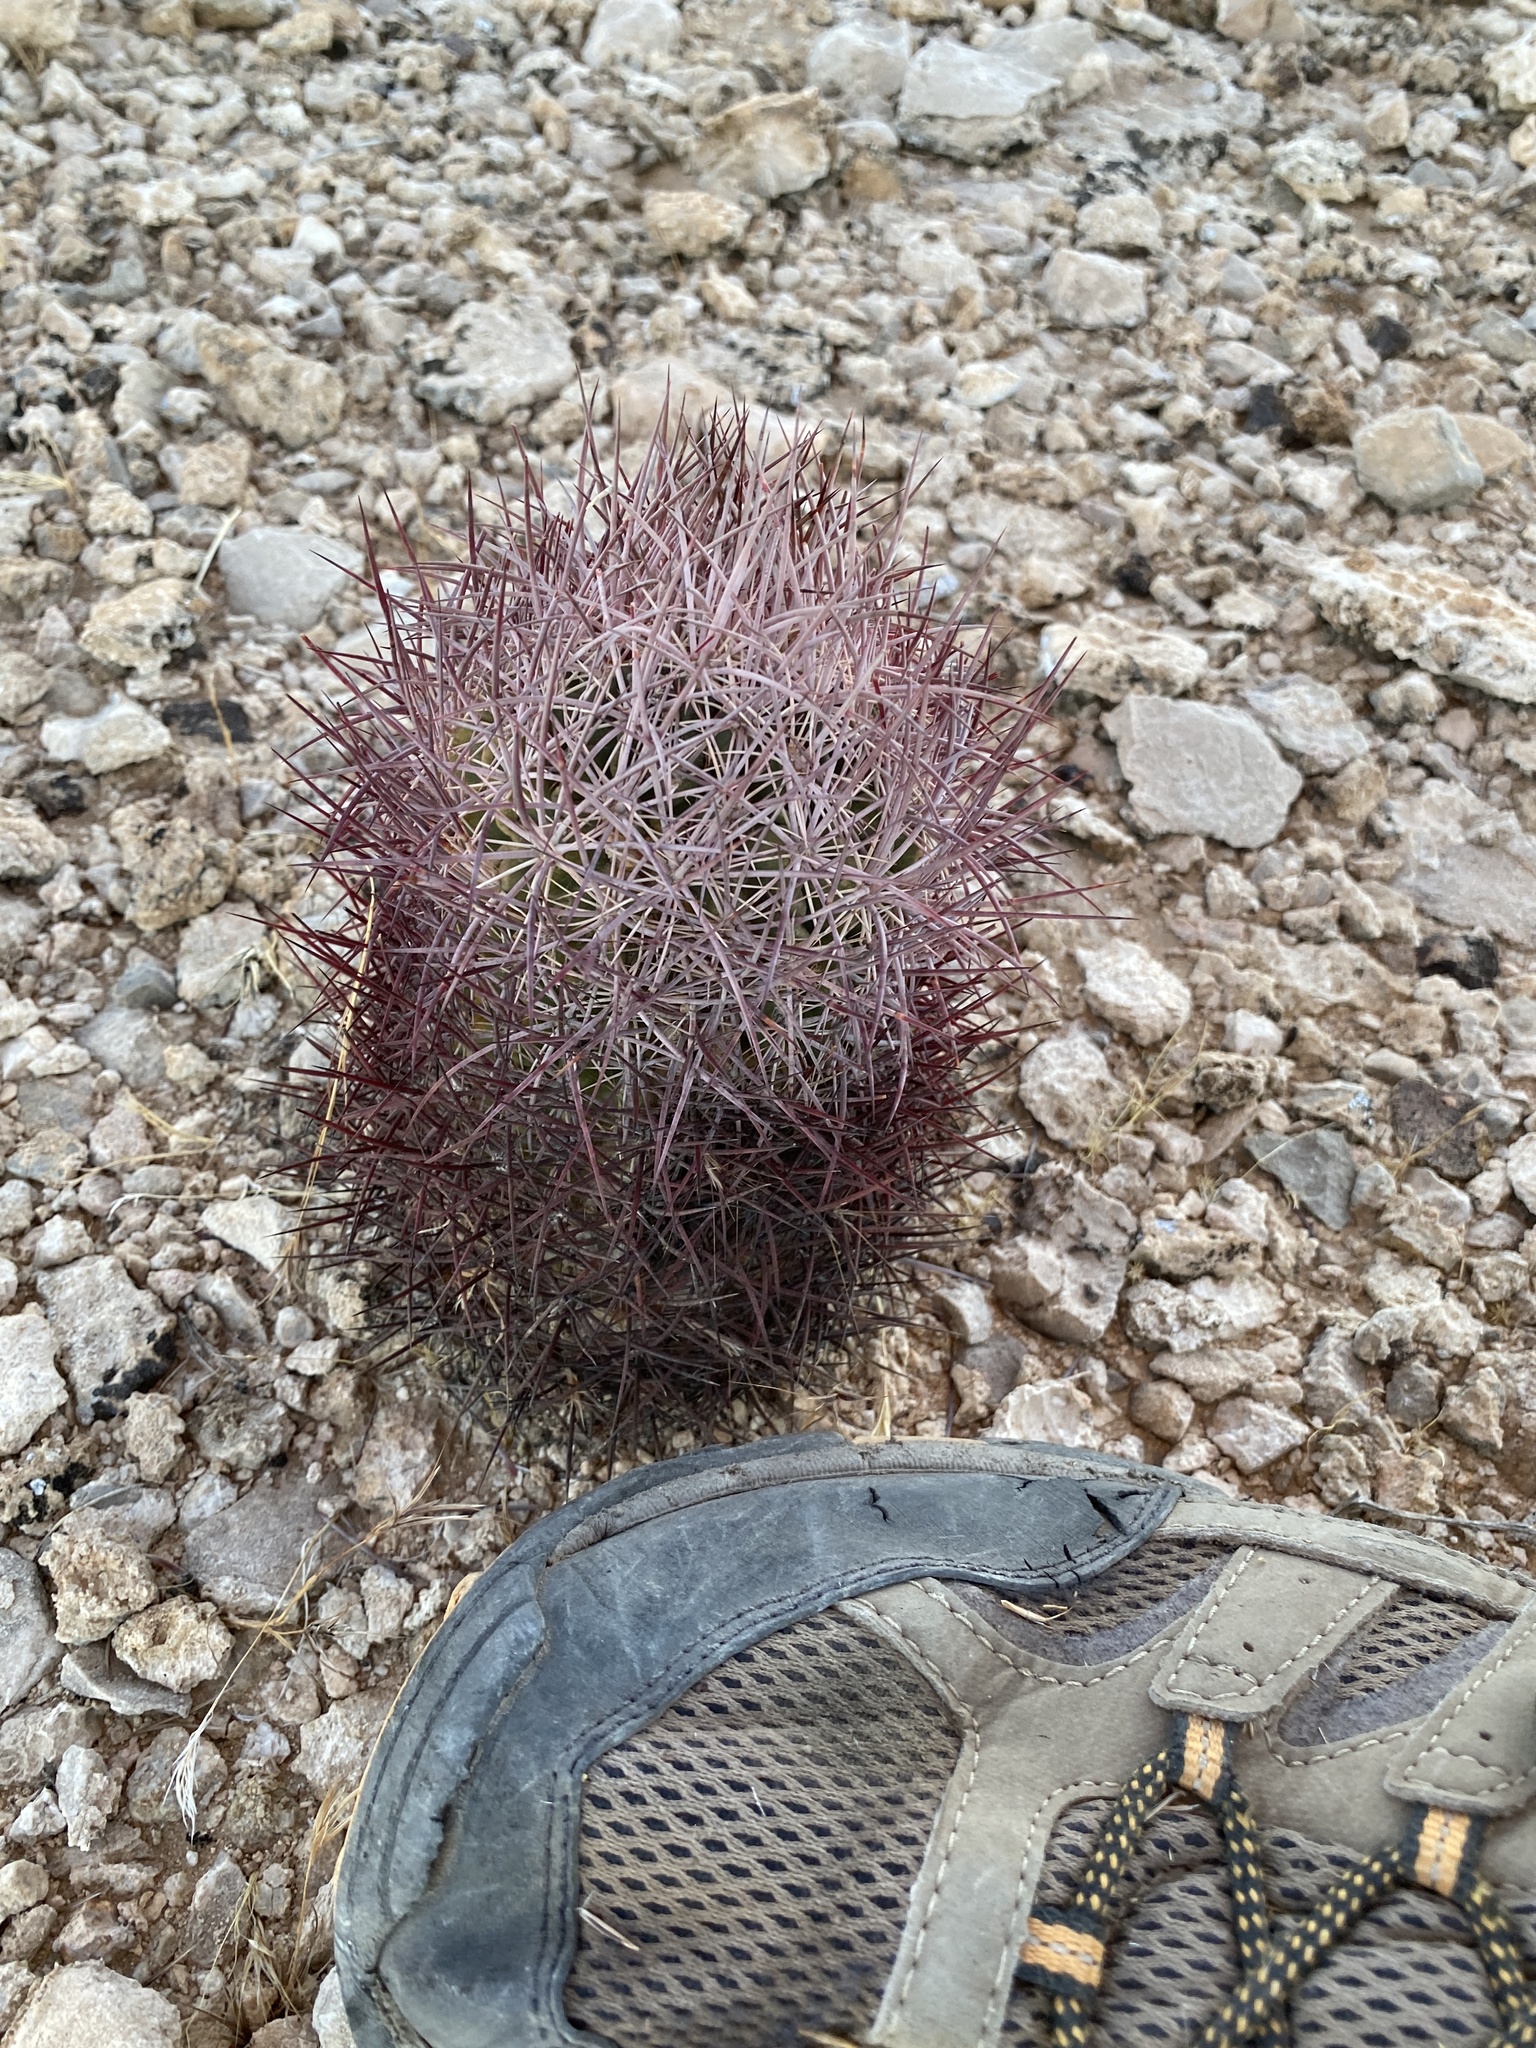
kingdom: Plantae
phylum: Tracheophyta
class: Magnoliopsida
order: Caryophyllales
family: Cactaceae
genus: Sclerocactus
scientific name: Sclerocactus johnsonii
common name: Eight-spine fishhook cactus
